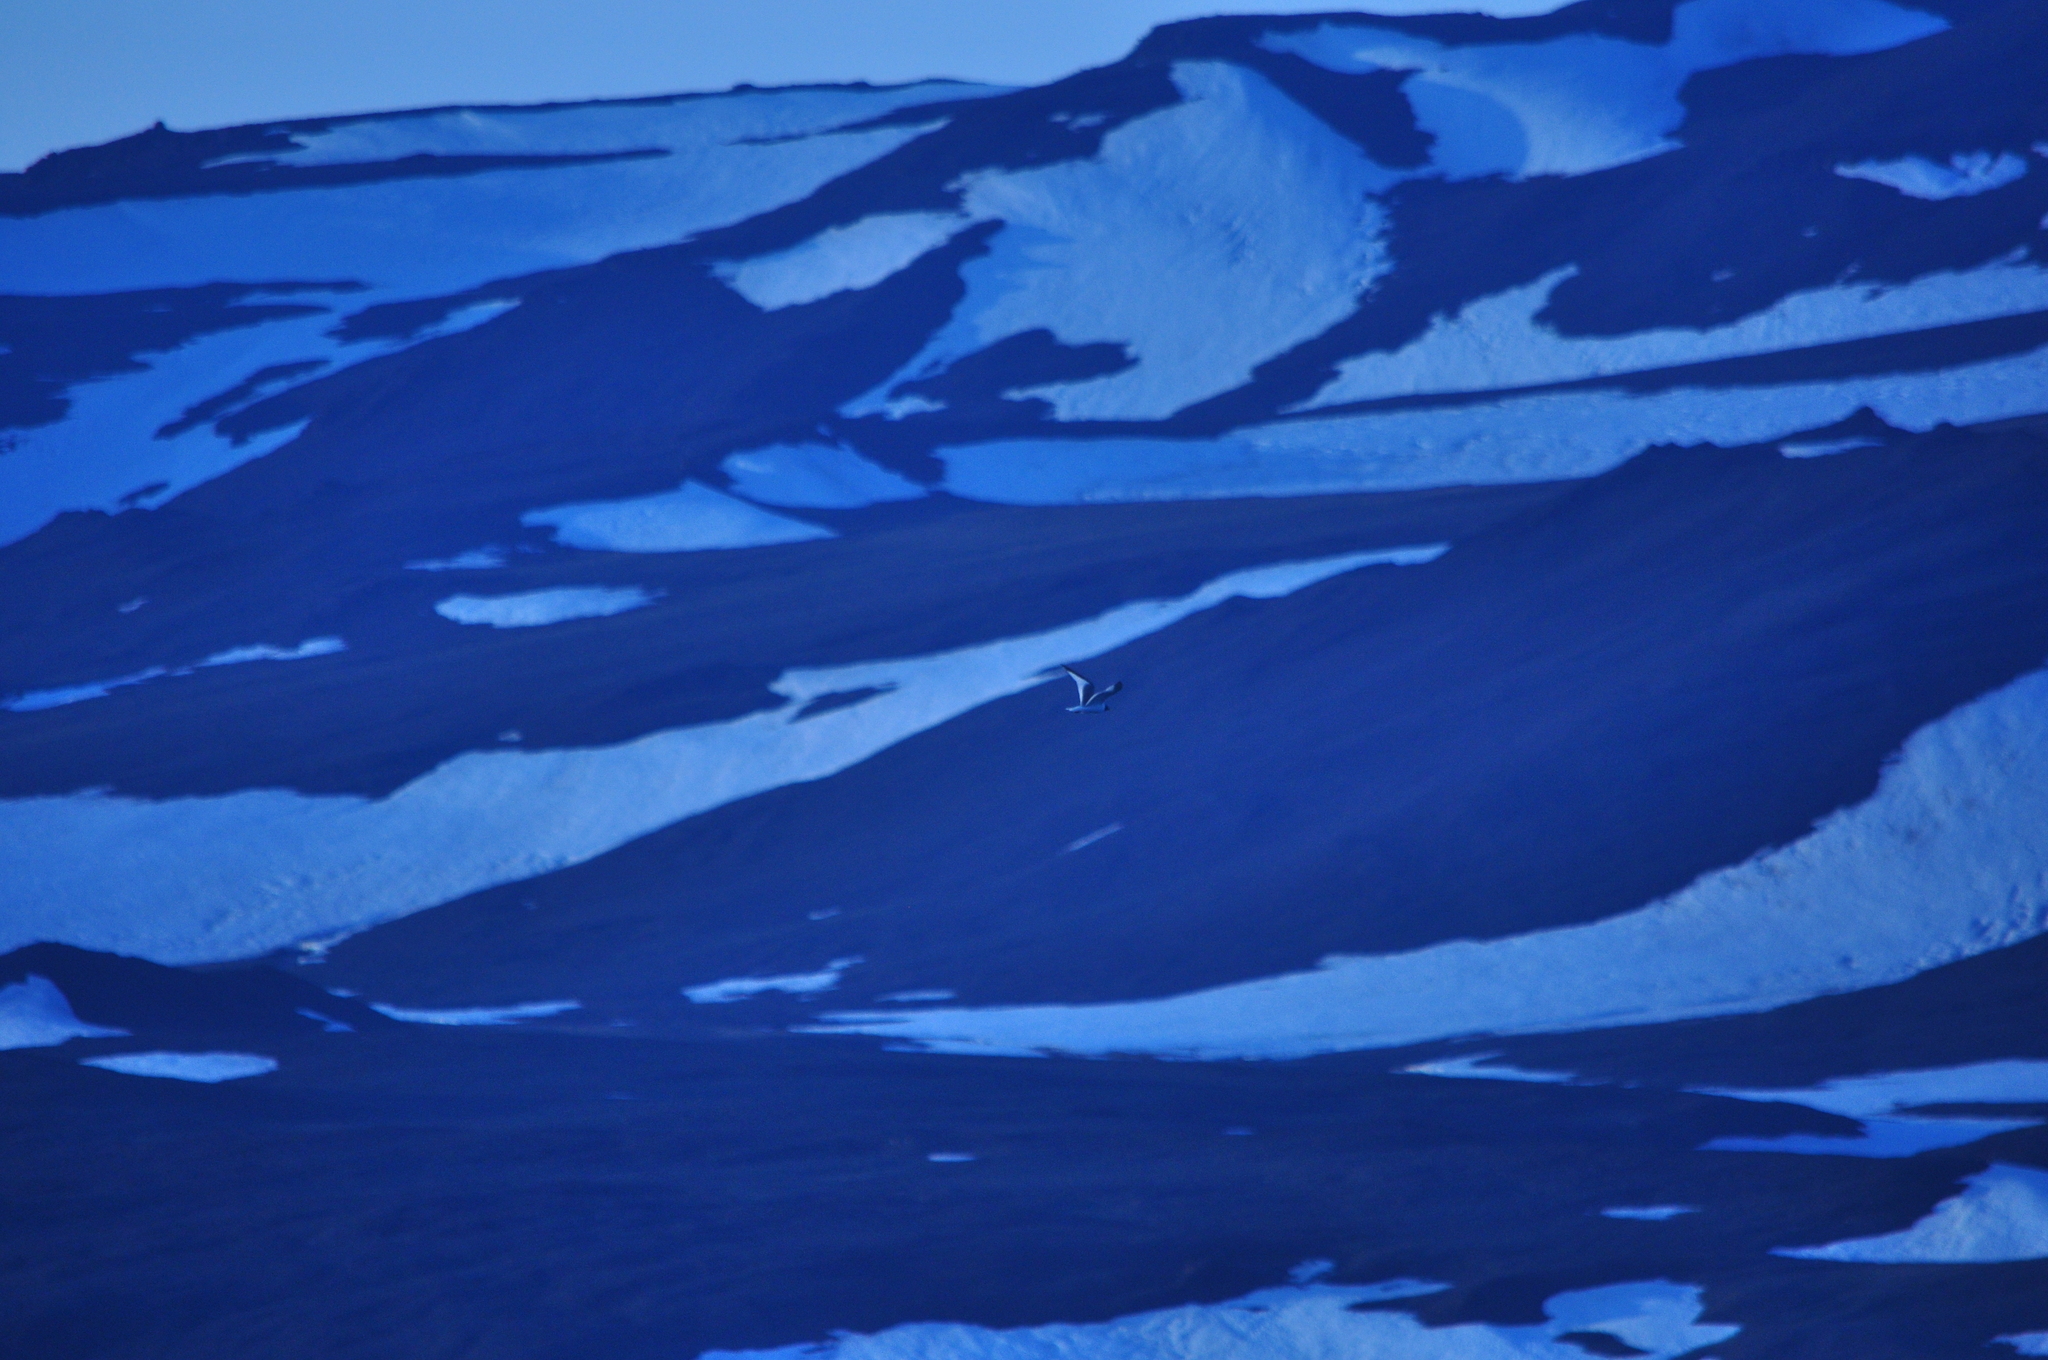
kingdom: Animalia
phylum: Chordata
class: Aves
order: Charadriiformes
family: Laridae
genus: Xema
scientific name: Xema sabini
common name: Sabine's gull
